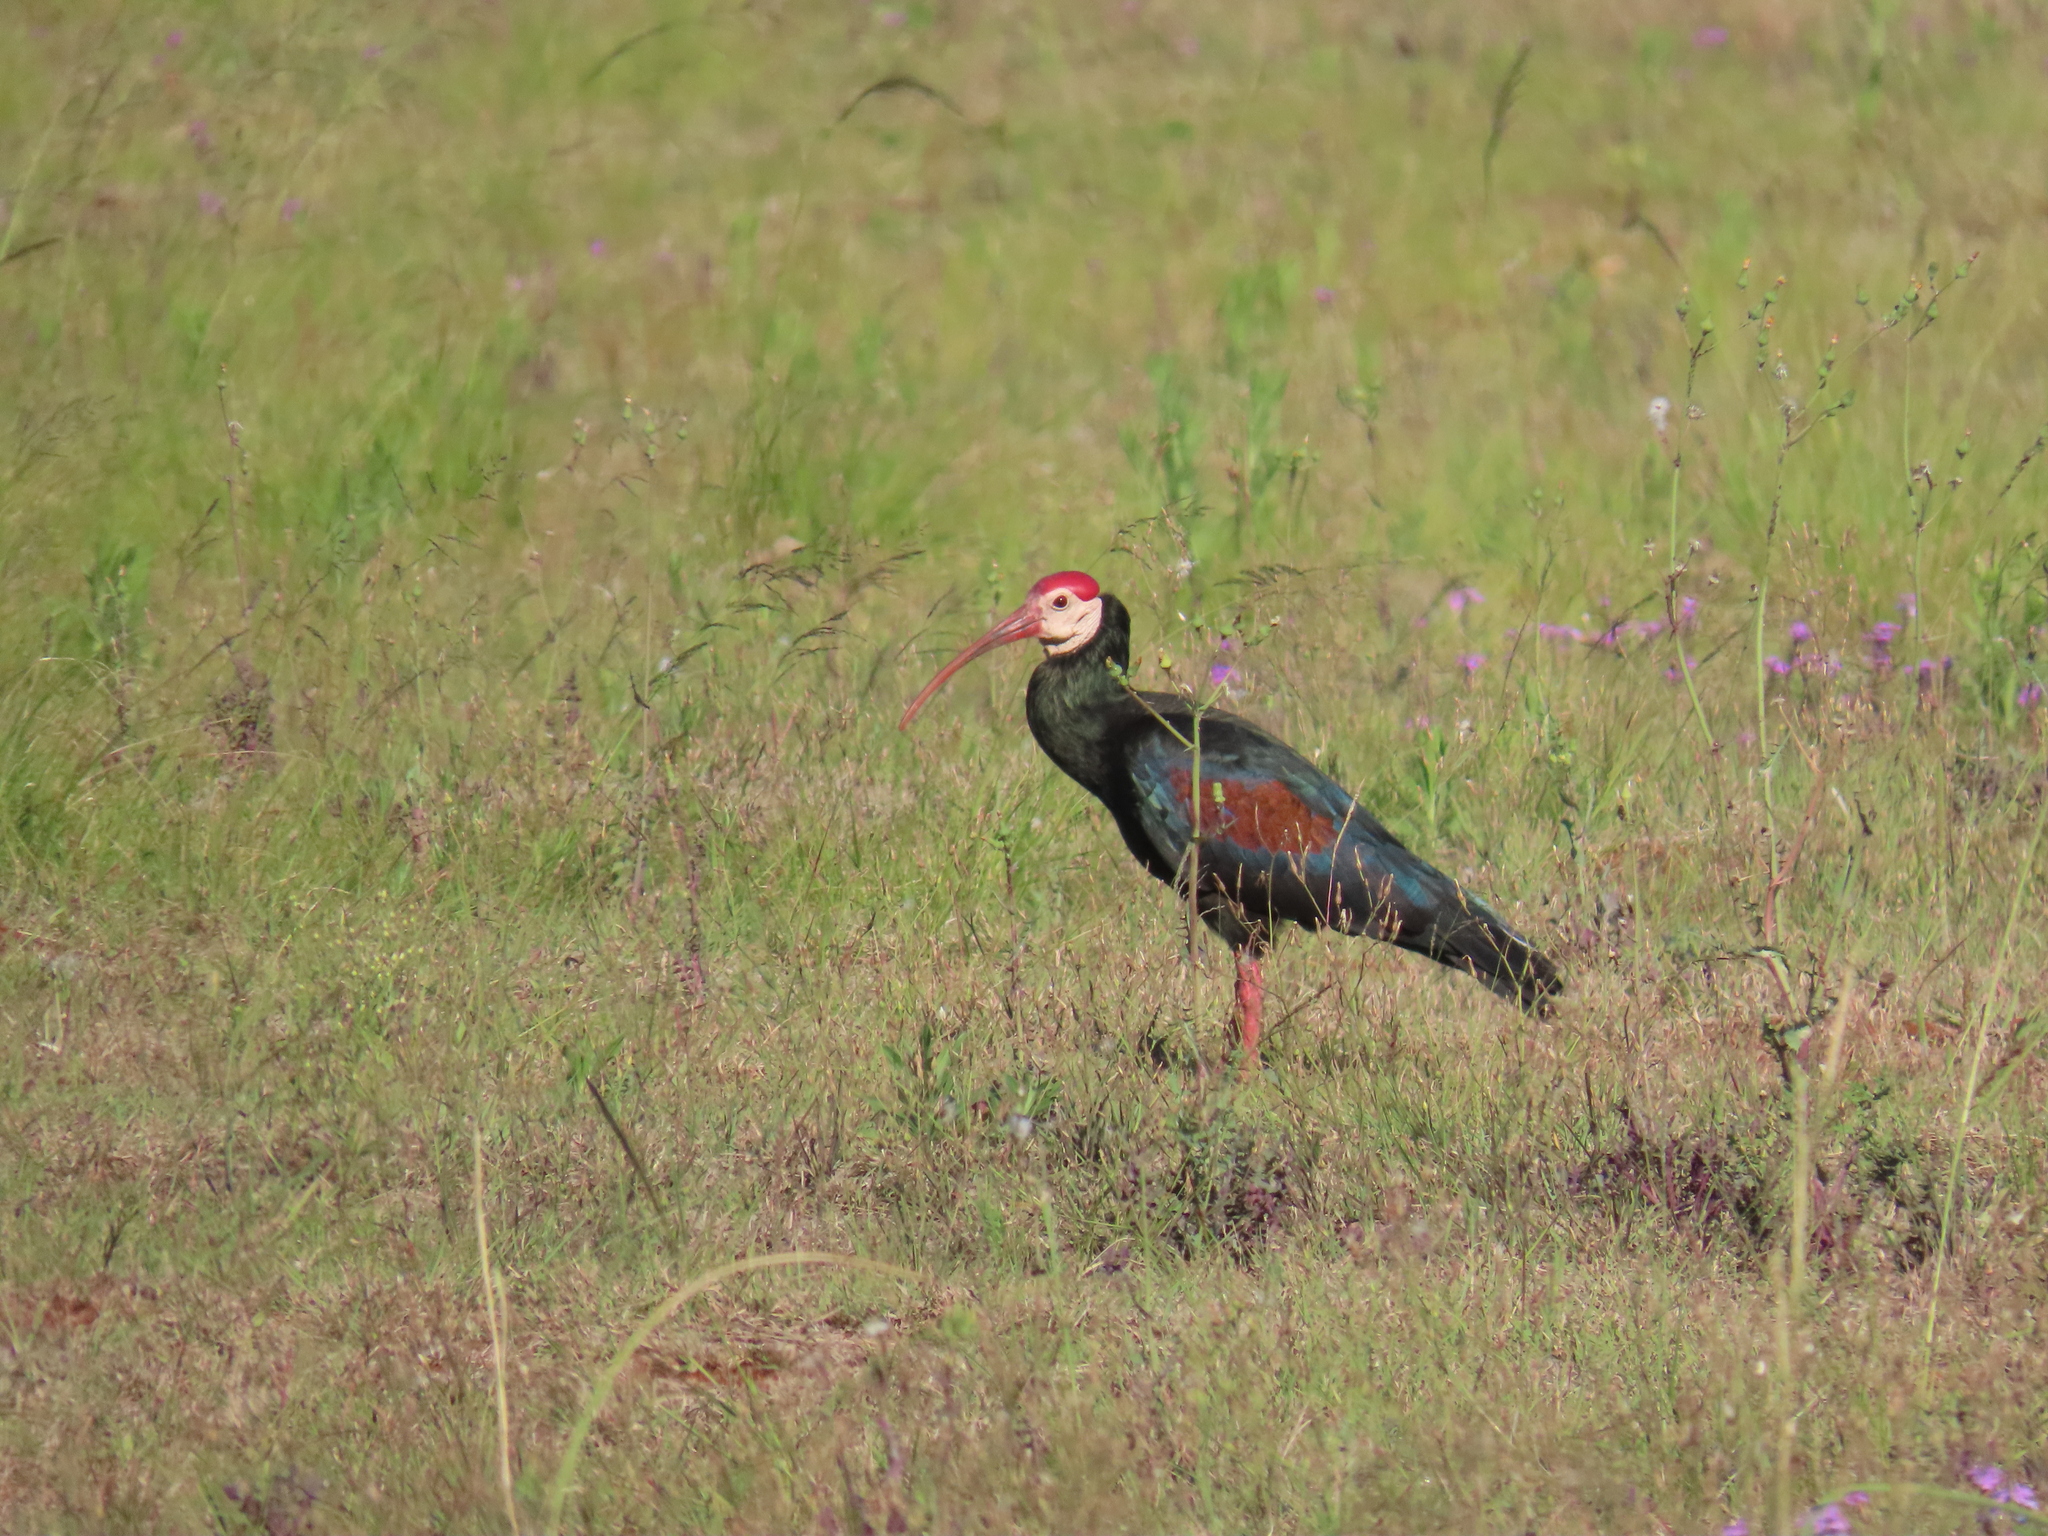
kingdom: Animalia
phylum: Chordata
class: Aves
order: Pelecaniformes
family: Threskiornithidae
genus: Geronticus
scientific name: Geronticus calvus
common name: Southern bald ibis
